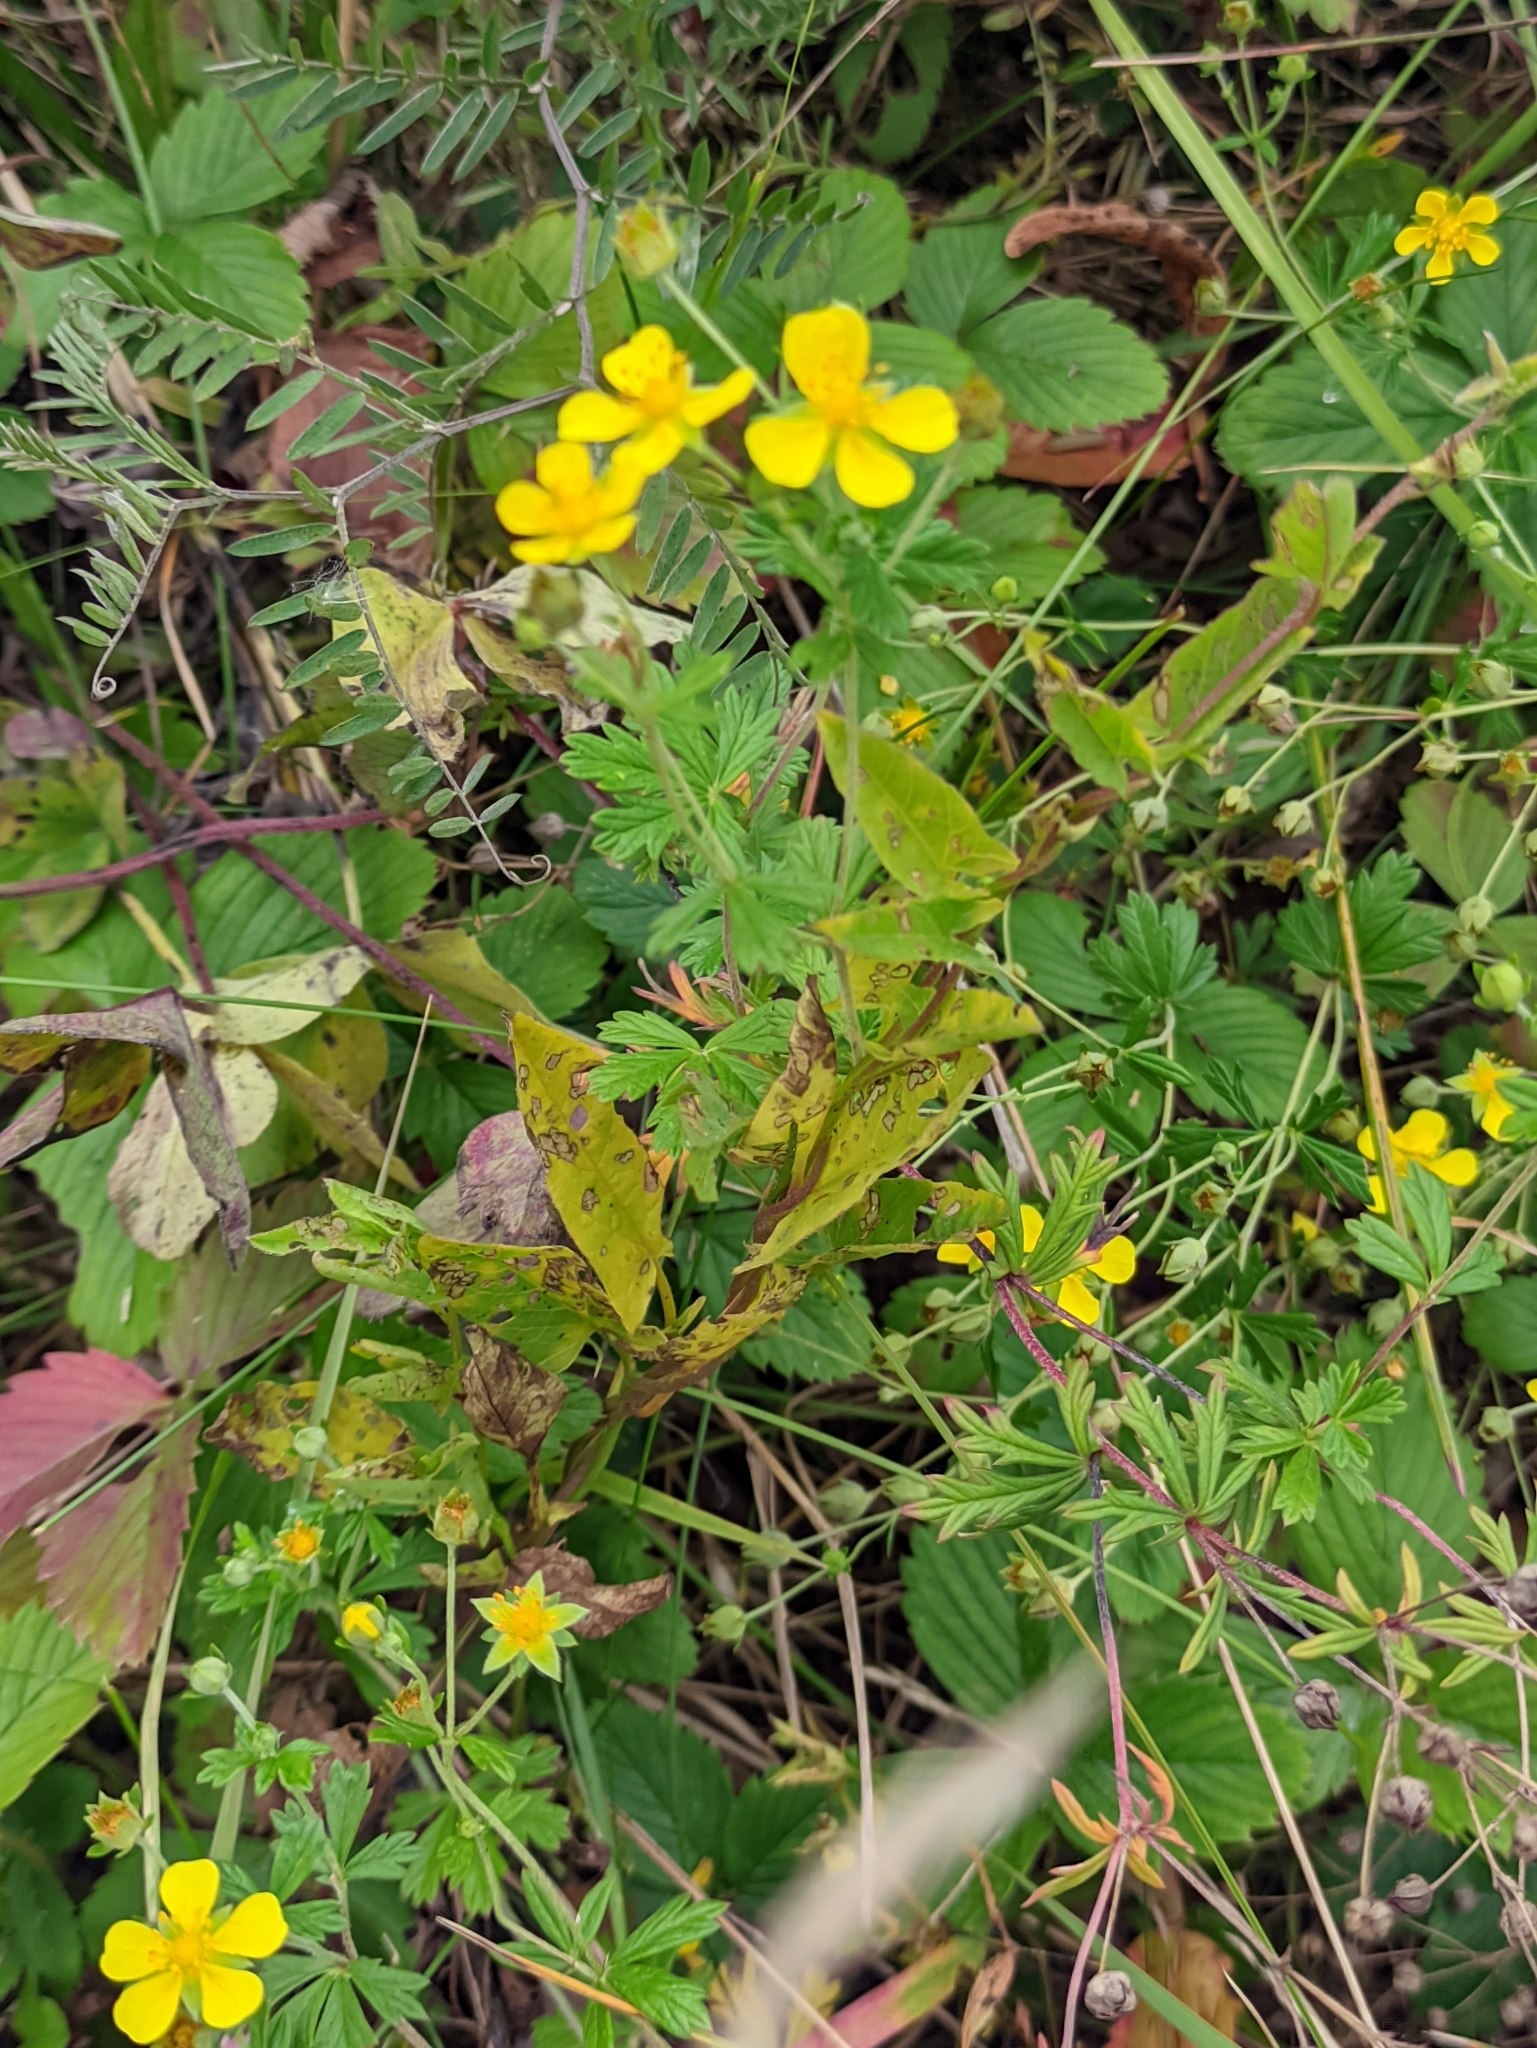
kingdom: Plantae
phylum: Tracheophyta
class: Magnoliopsida
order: Rosales
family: Rosaceae
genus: Potentilla
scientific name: Potentilla argentea
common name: Hoary cinquefoil
